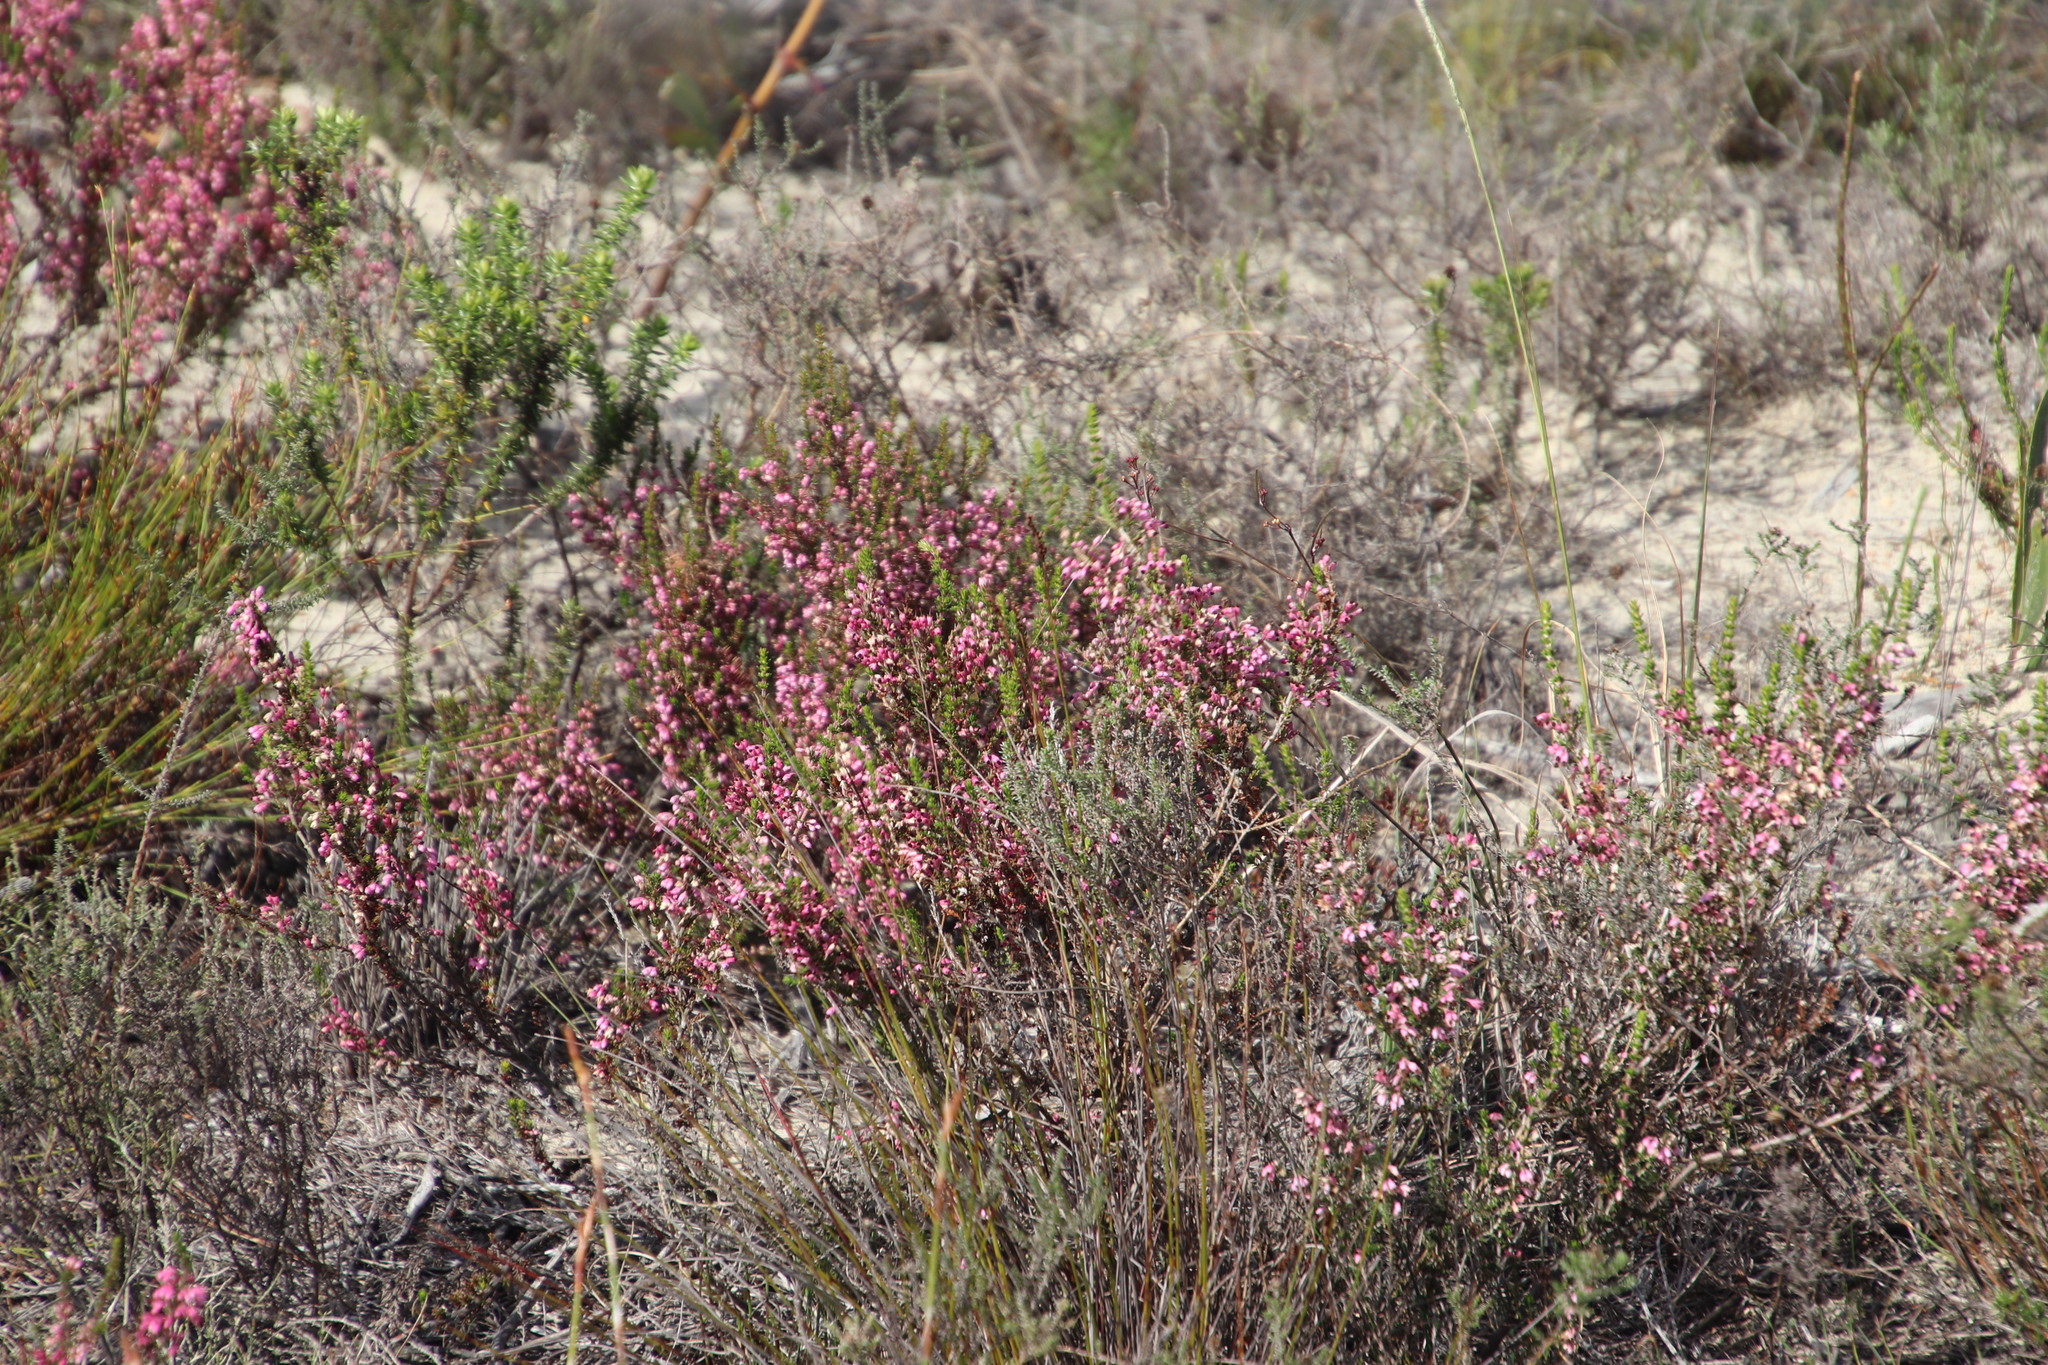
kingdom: Plantae
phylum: Tracheophyta
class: Magnoliopsida
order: Ericales
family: Ericaceae
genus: Erica
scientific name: Erica placentiflora
